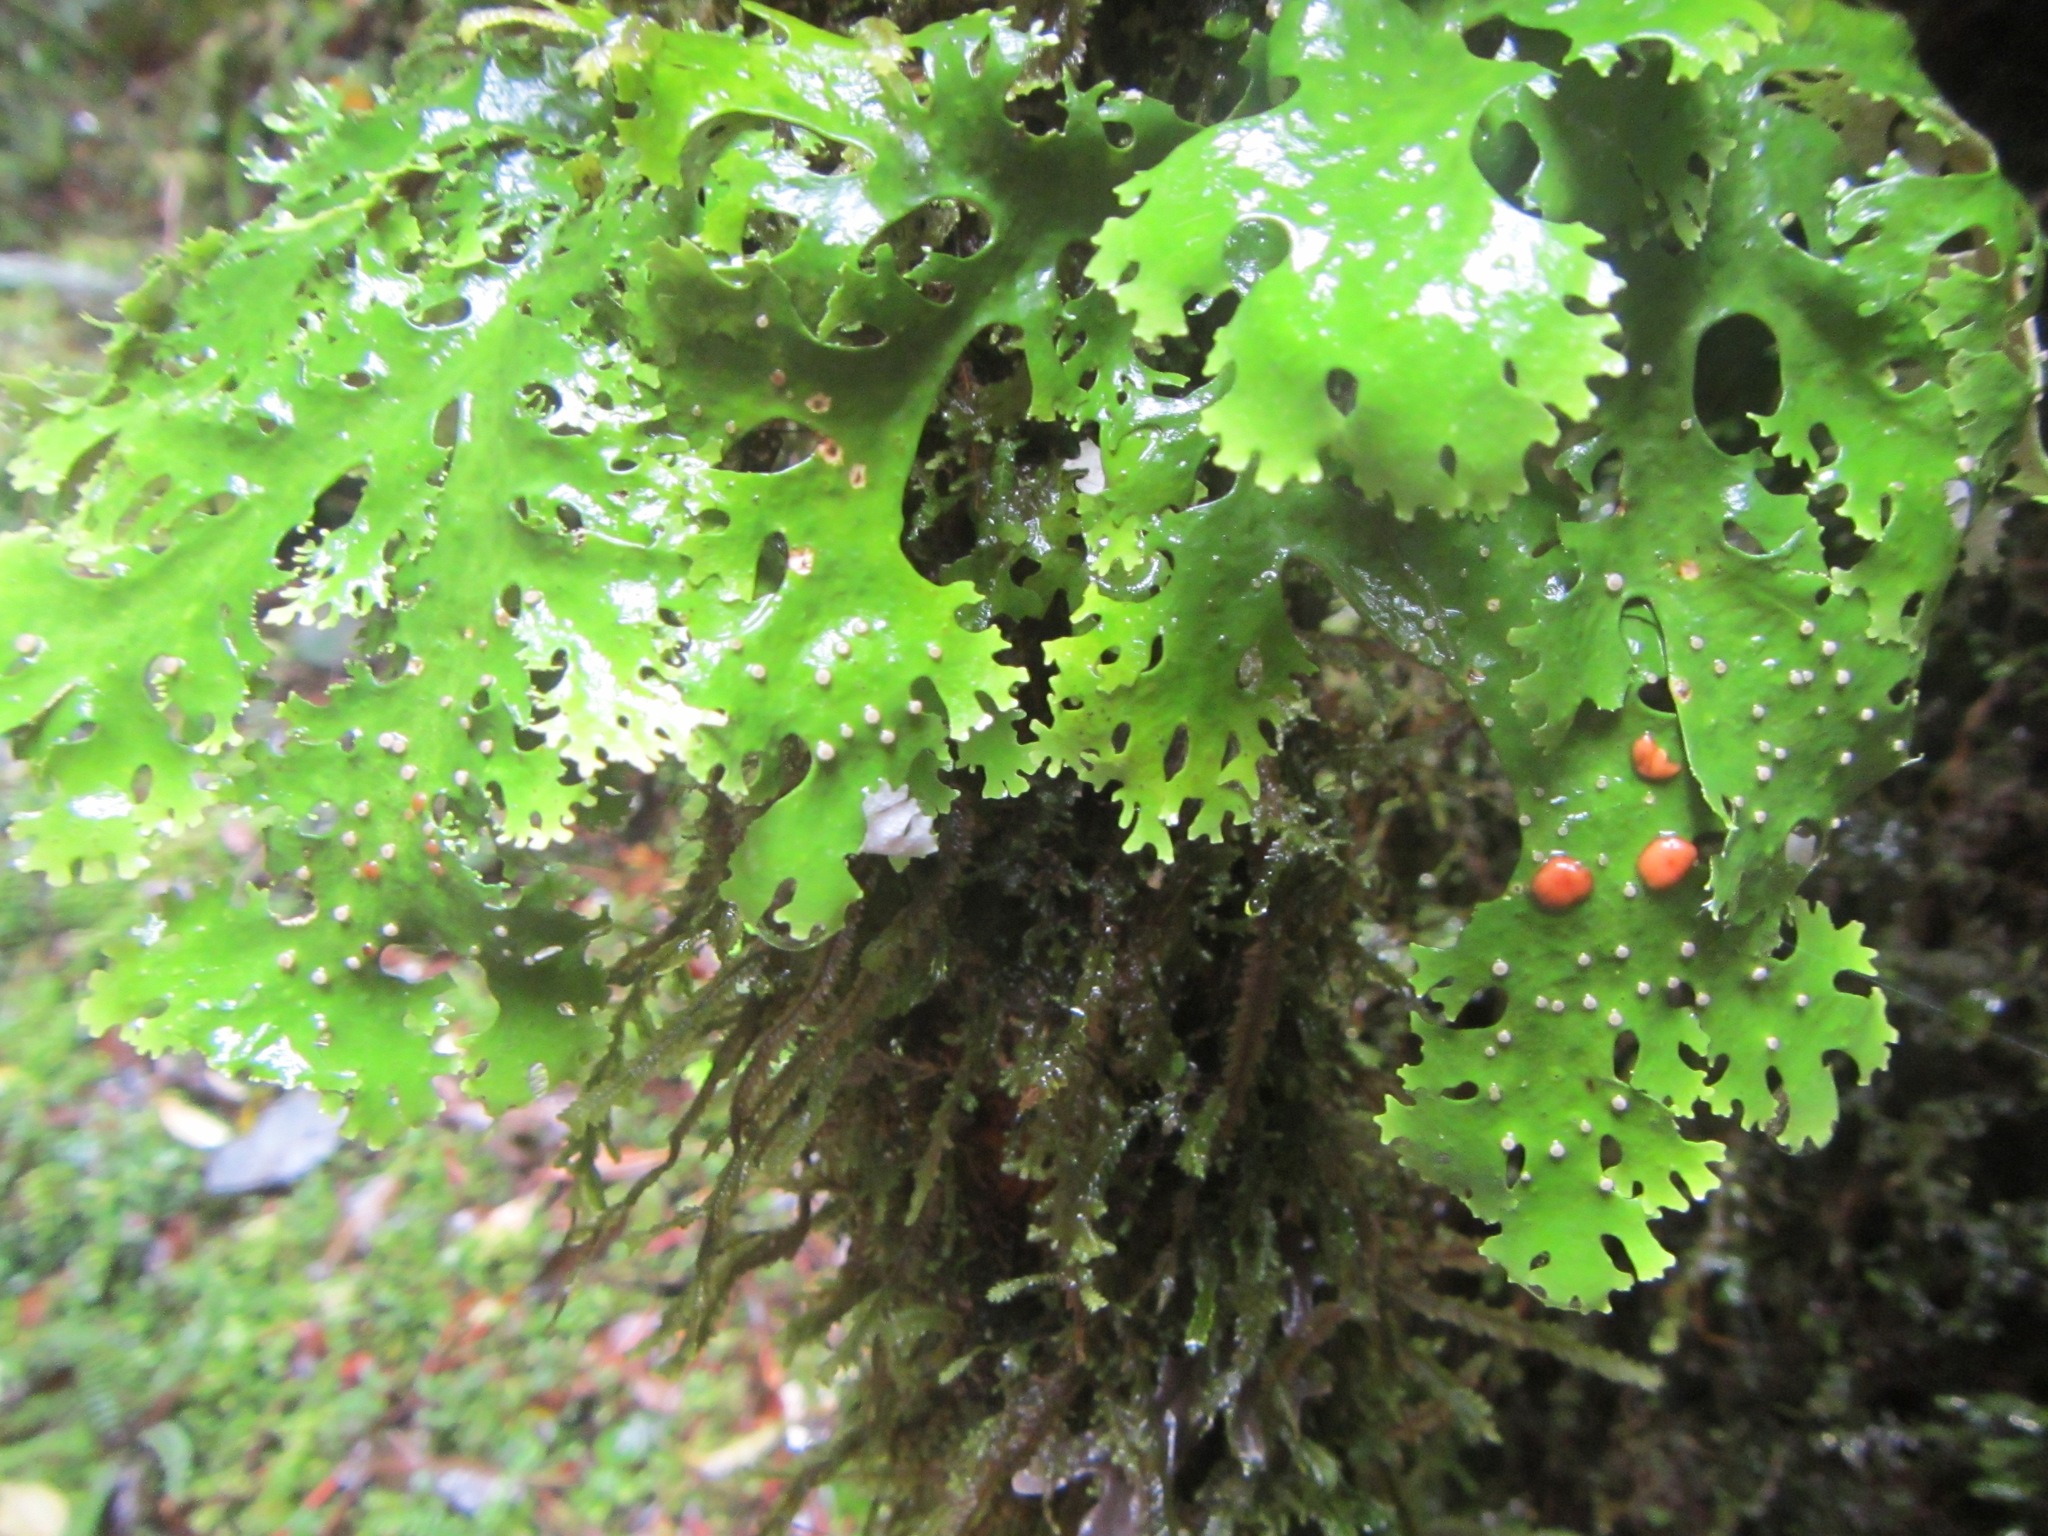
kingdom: Fungi
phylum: Ascomycota
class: Lecanoromycetes
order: Peltigerales
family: Lobariaceae
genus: Pseudocyphellaria
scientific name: Pseudocyphellaria multifida
